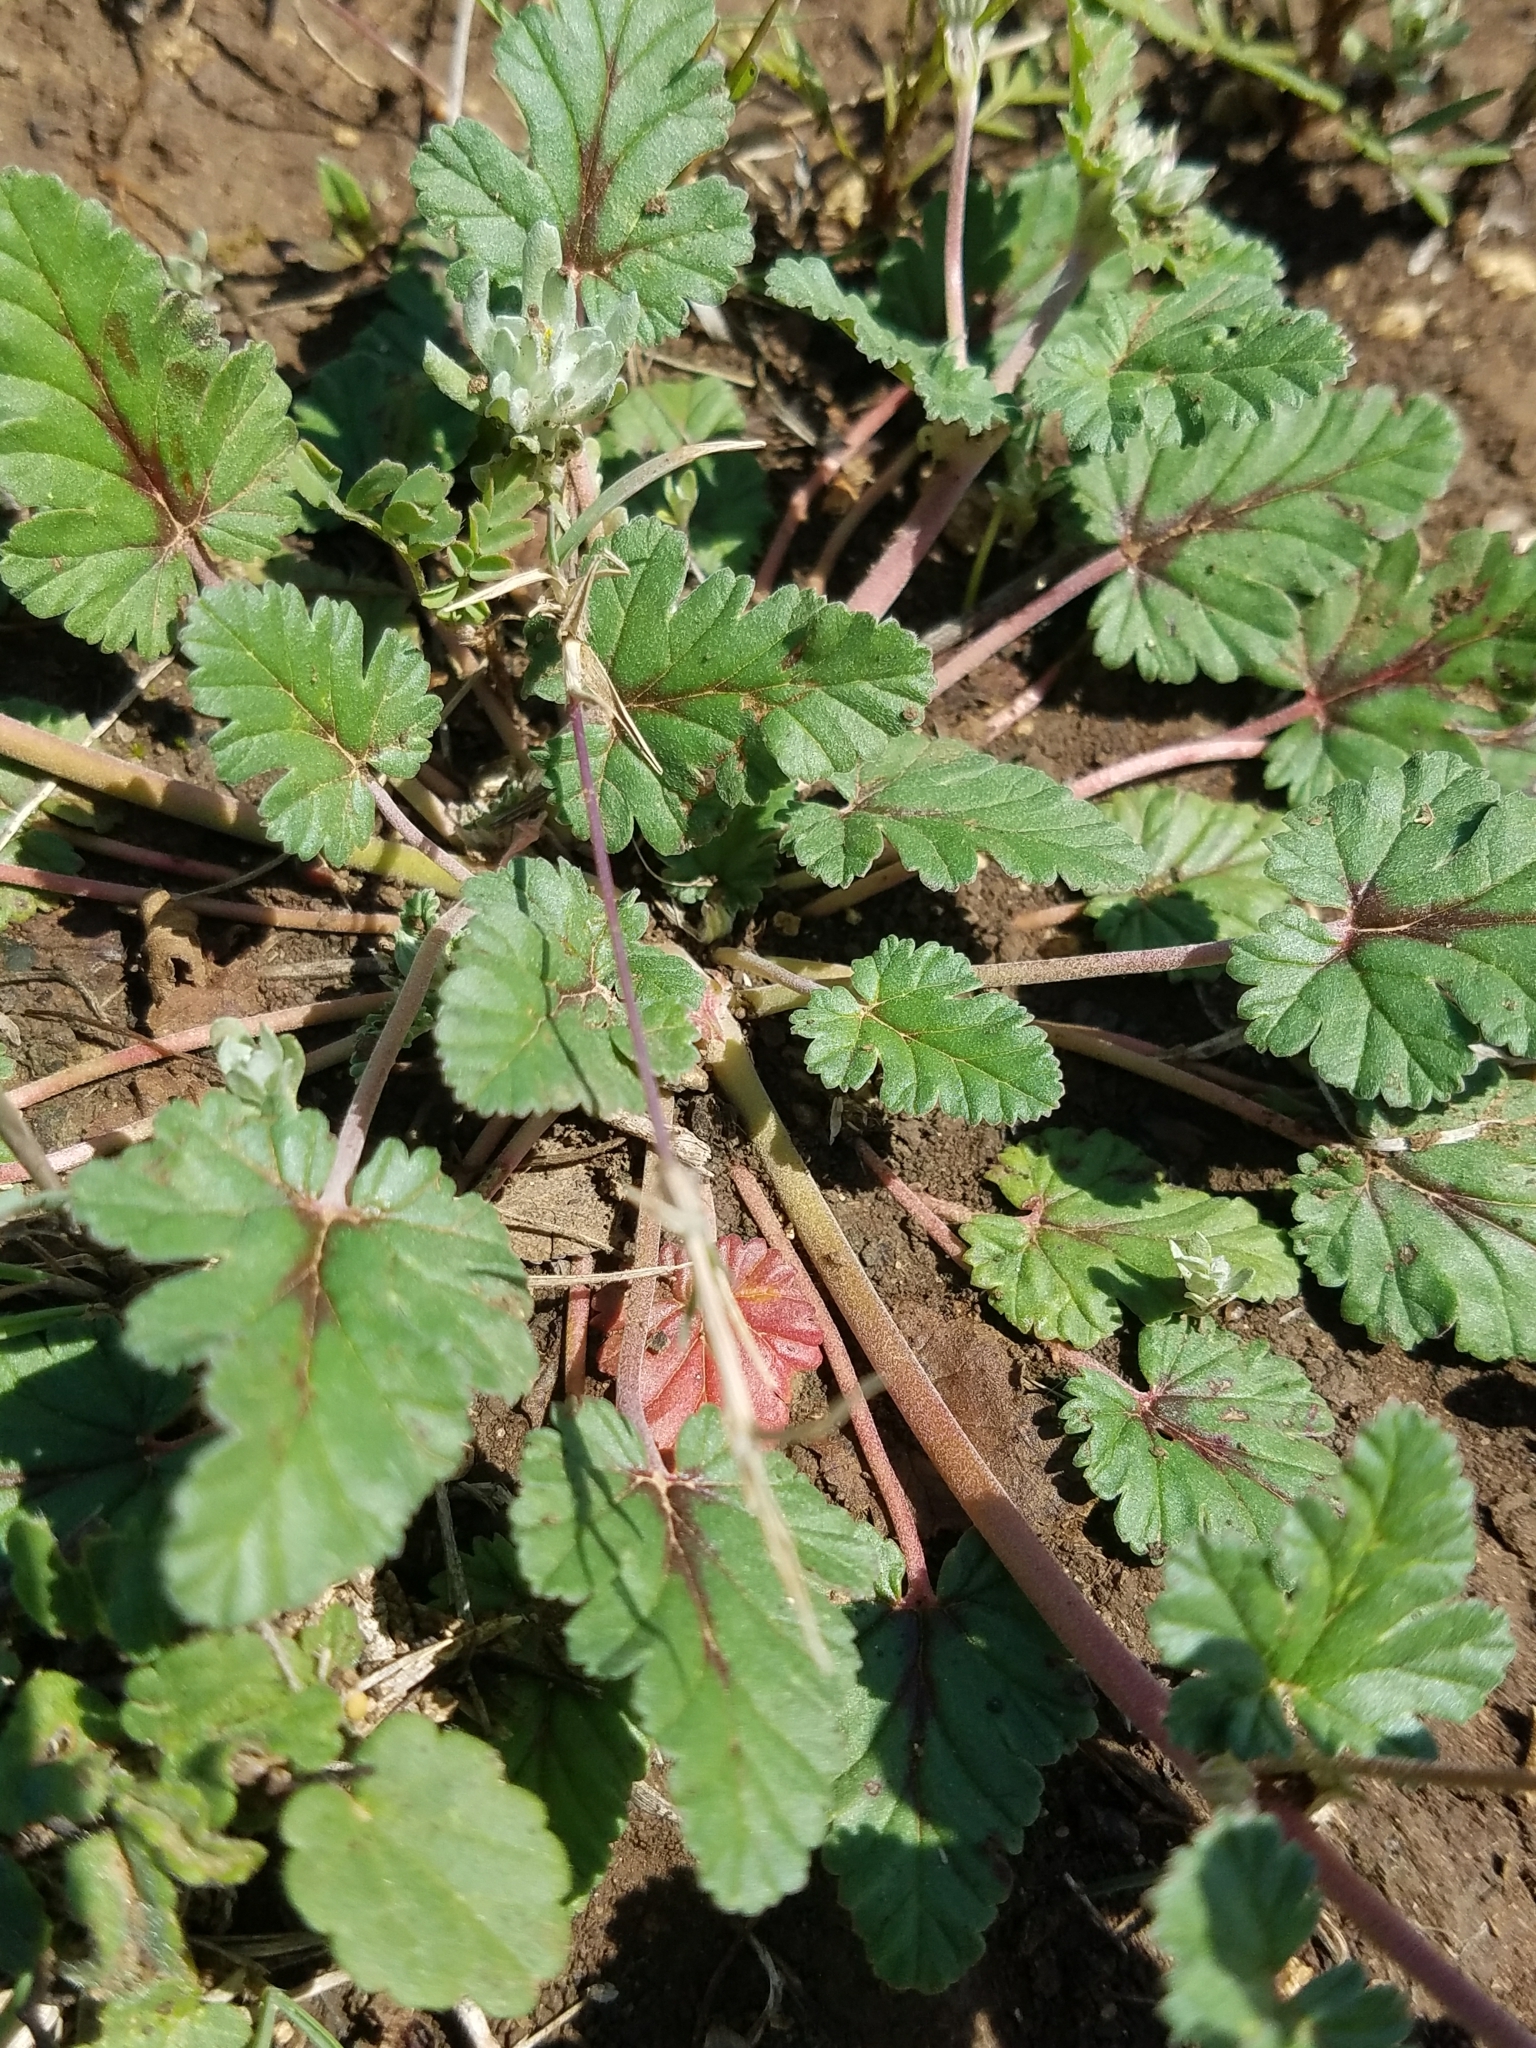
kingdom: Plantae
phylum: Tracheophyta
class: Magnoliopsida
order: Geraniales
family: Geraniaceae
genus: Erodium
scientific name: Erodium texanum
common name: Texas stork's-bill
